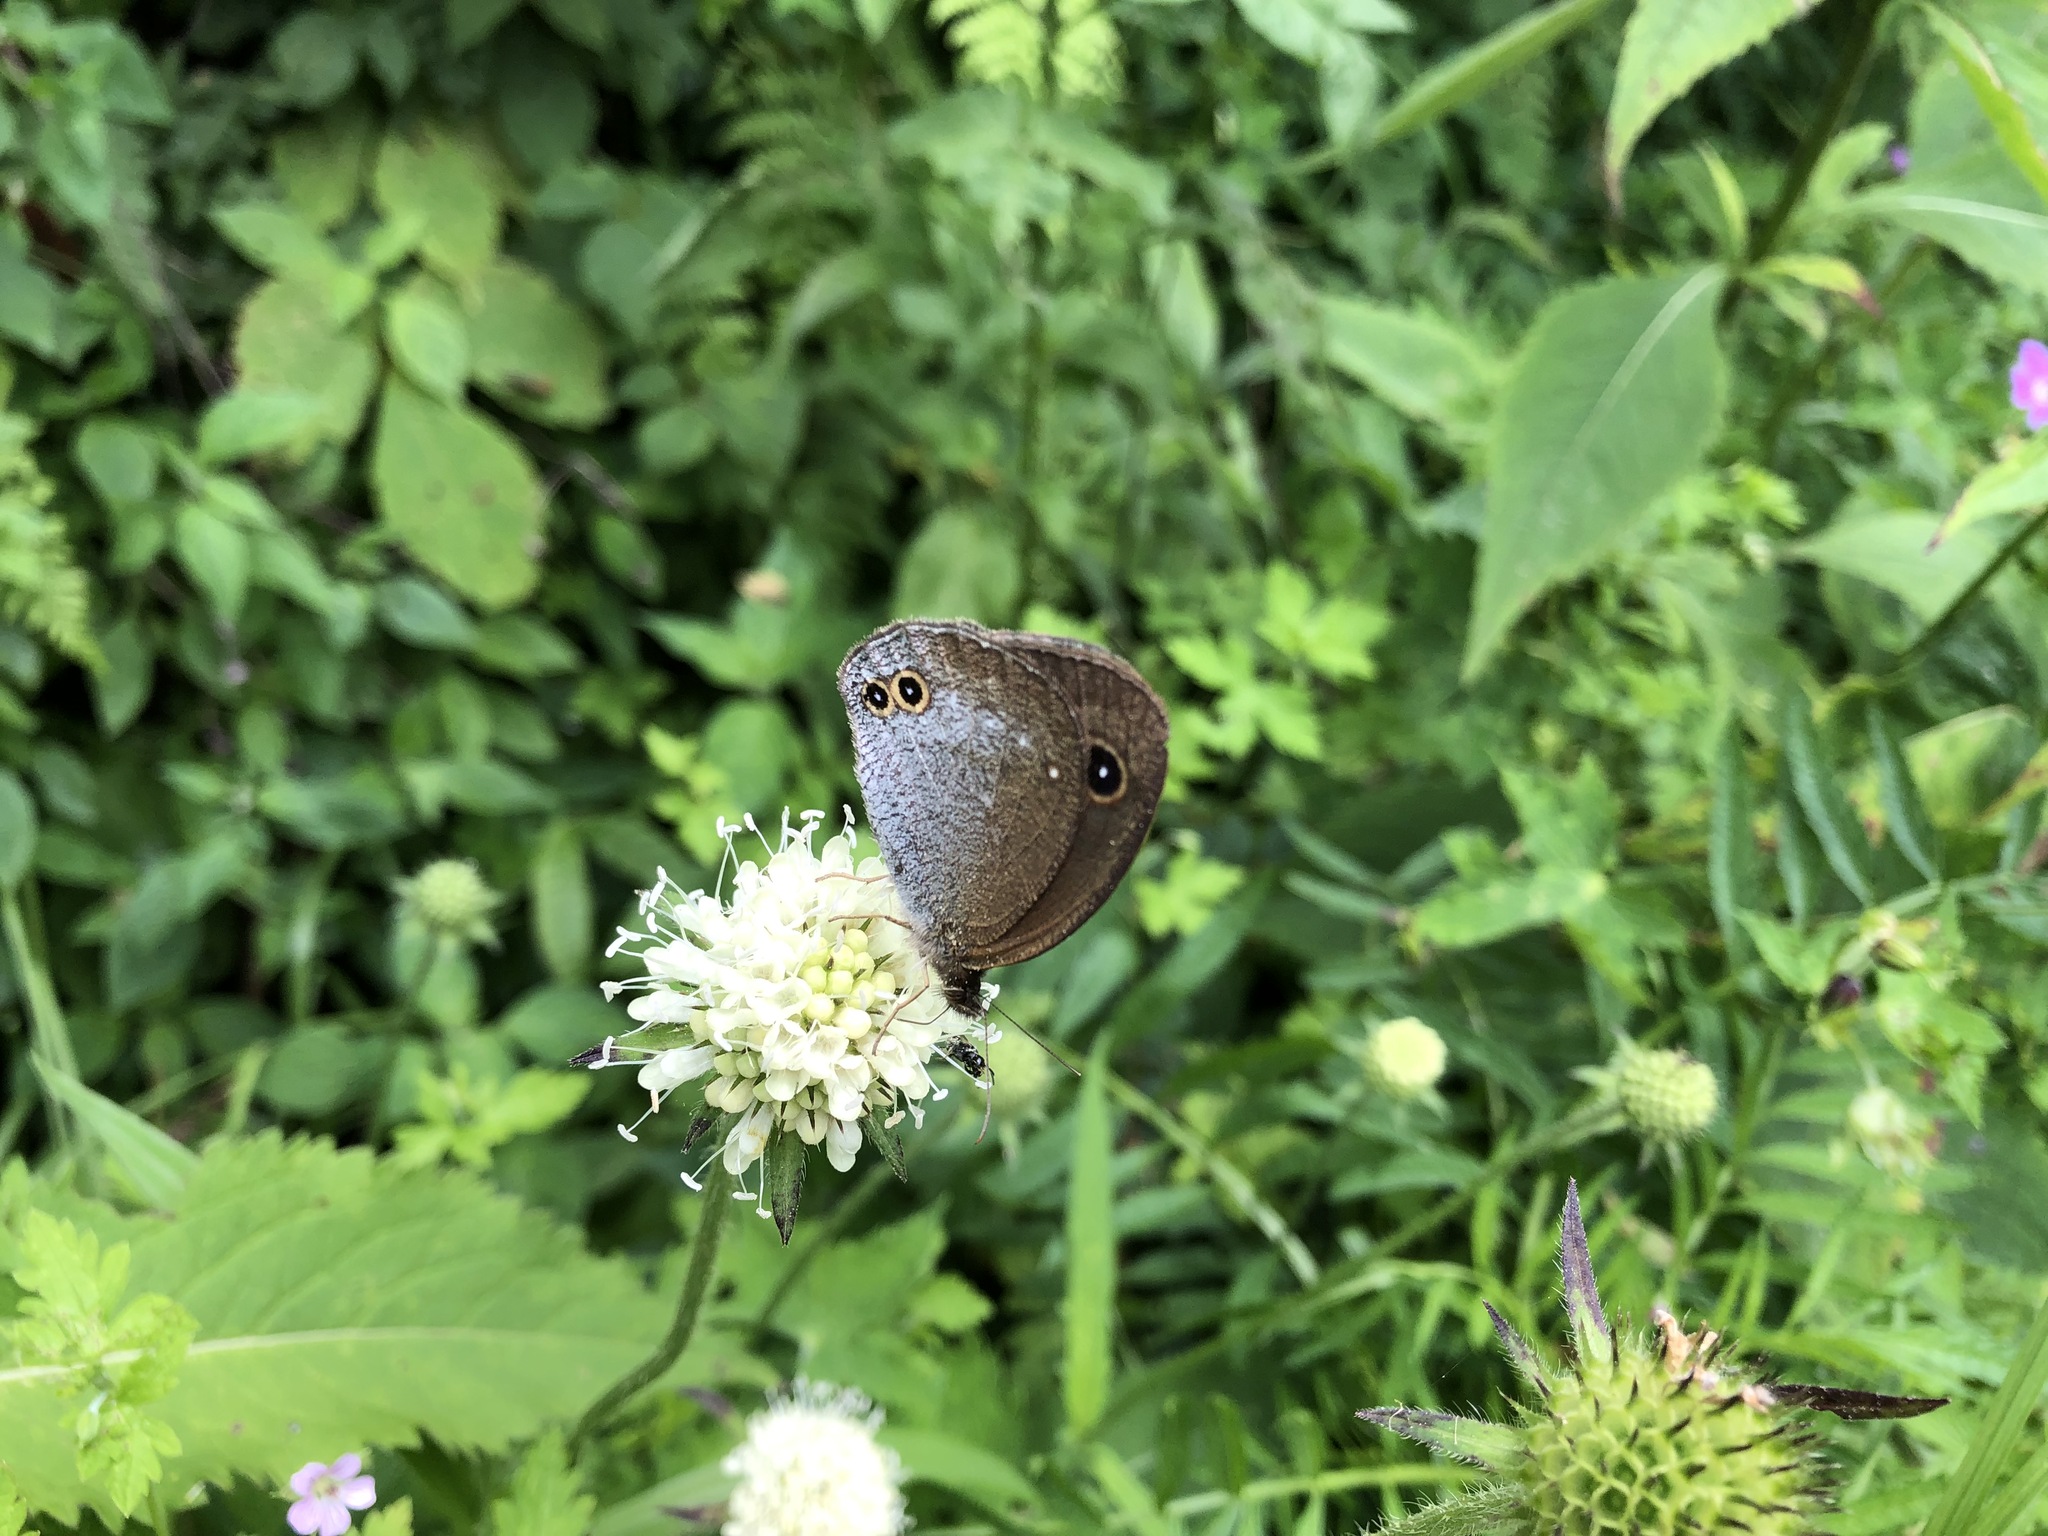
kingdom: Plantae
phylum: Tracheophyta
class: Magnoliopsida
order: Dipsacales
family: Caprifoliaceae
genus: Dipsacus
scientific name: Dipsacus inermis
